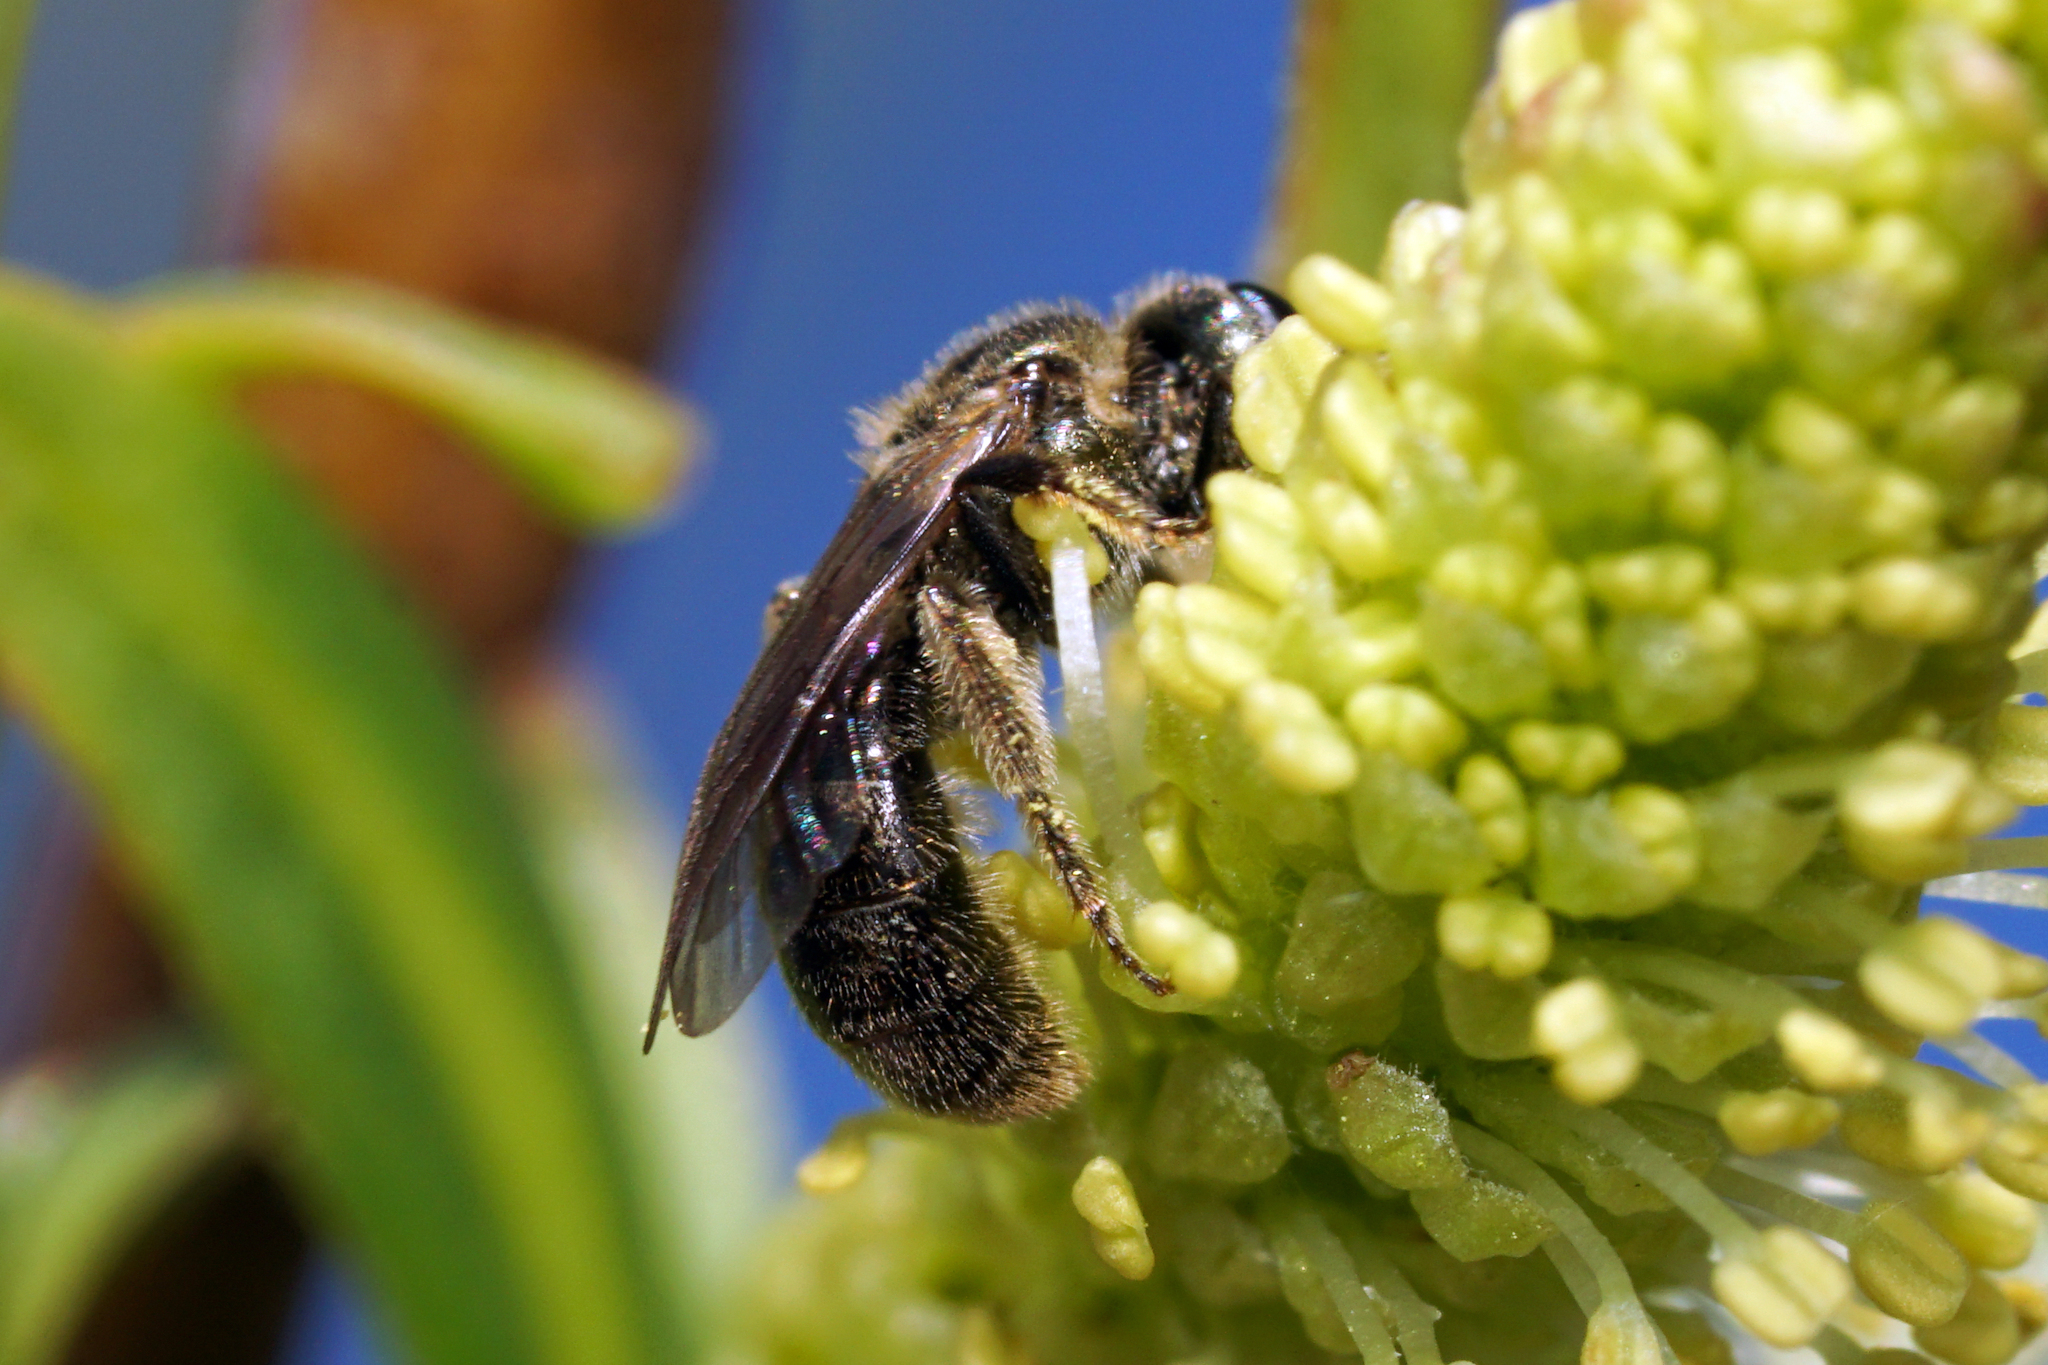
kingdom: Animalia
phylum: Arthropoda
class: Insecta
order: Hymenoptera
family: Halictidae
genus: Dialictus
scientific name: Dialictus
